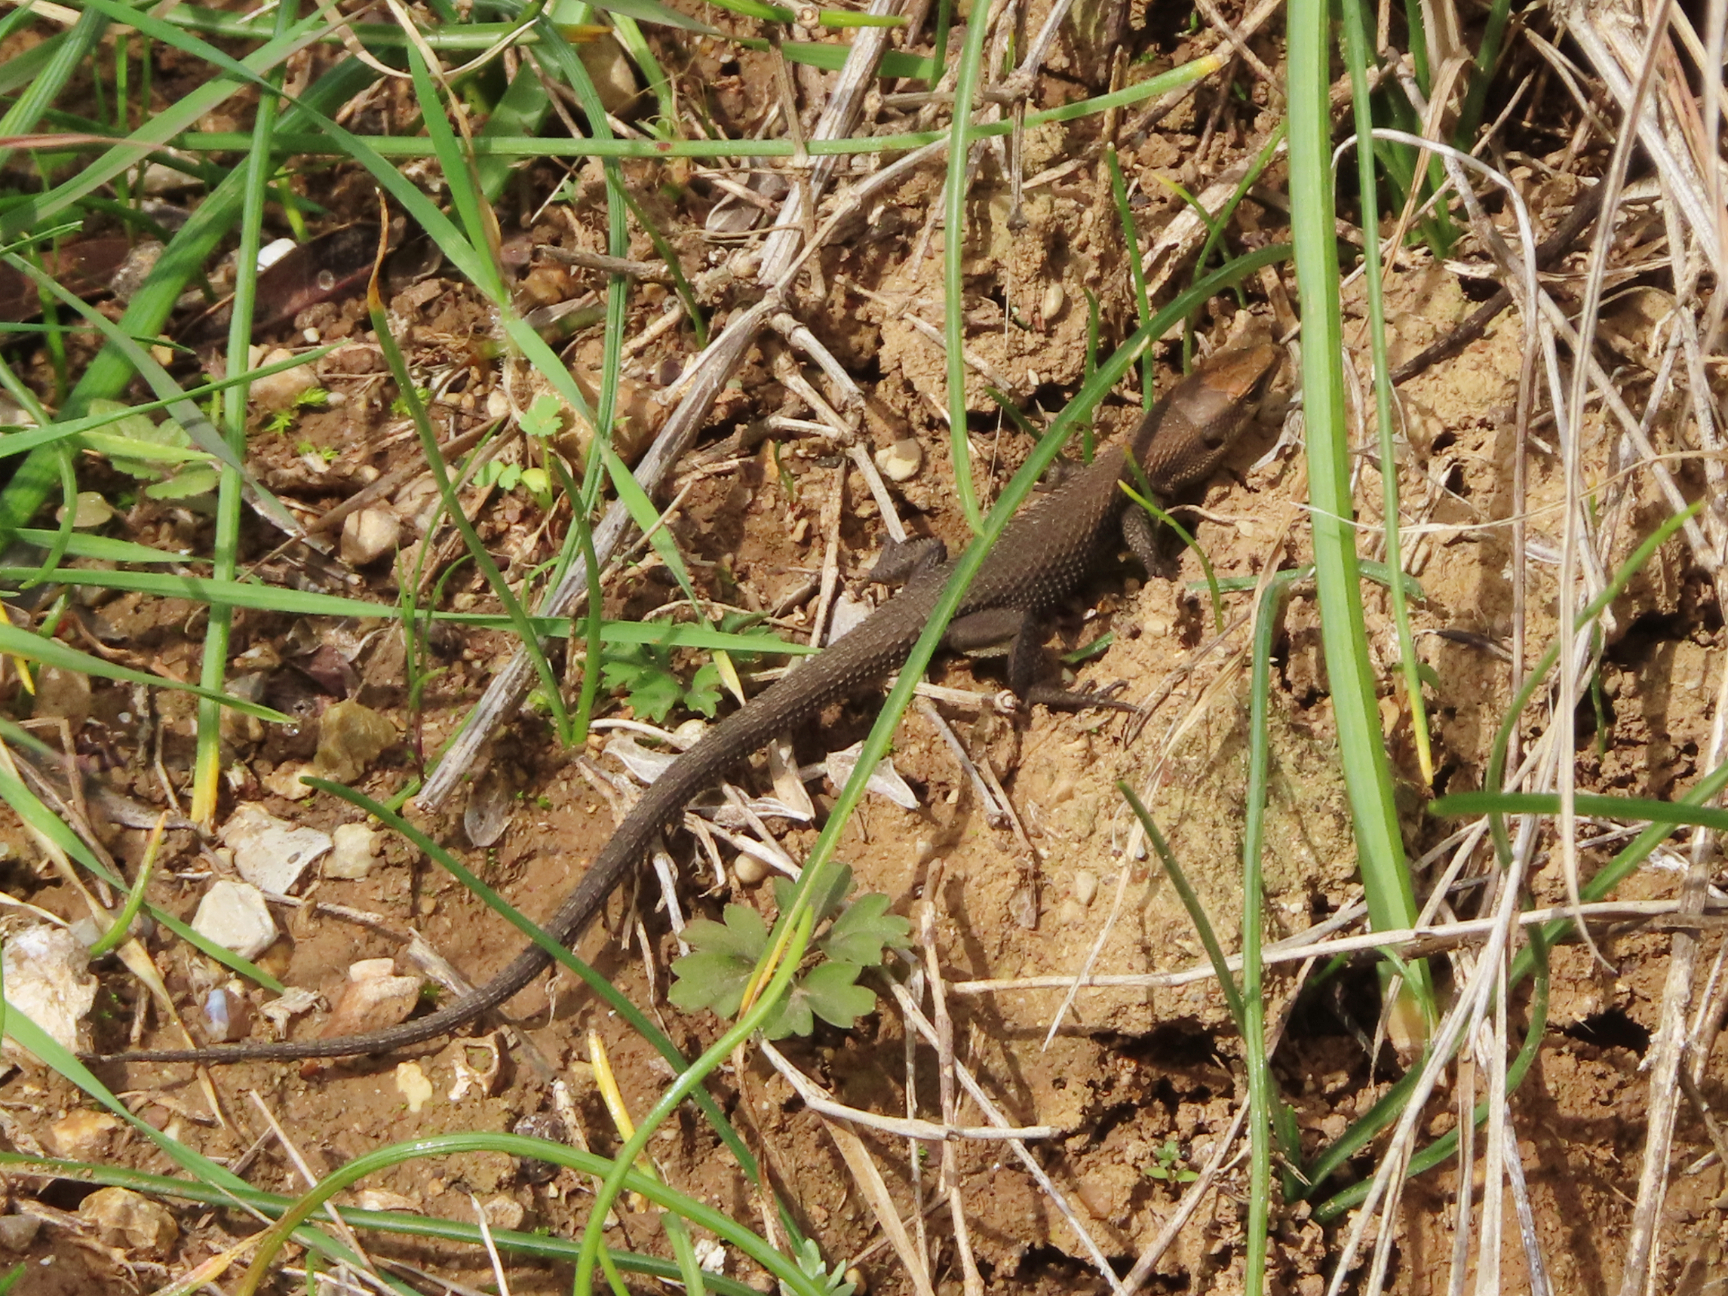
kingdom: Animalia
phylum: Chordata
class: Squamata
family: Lacertidae
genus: Algyroides
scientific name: Algyroides moreoticus
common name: Greek algyroides
